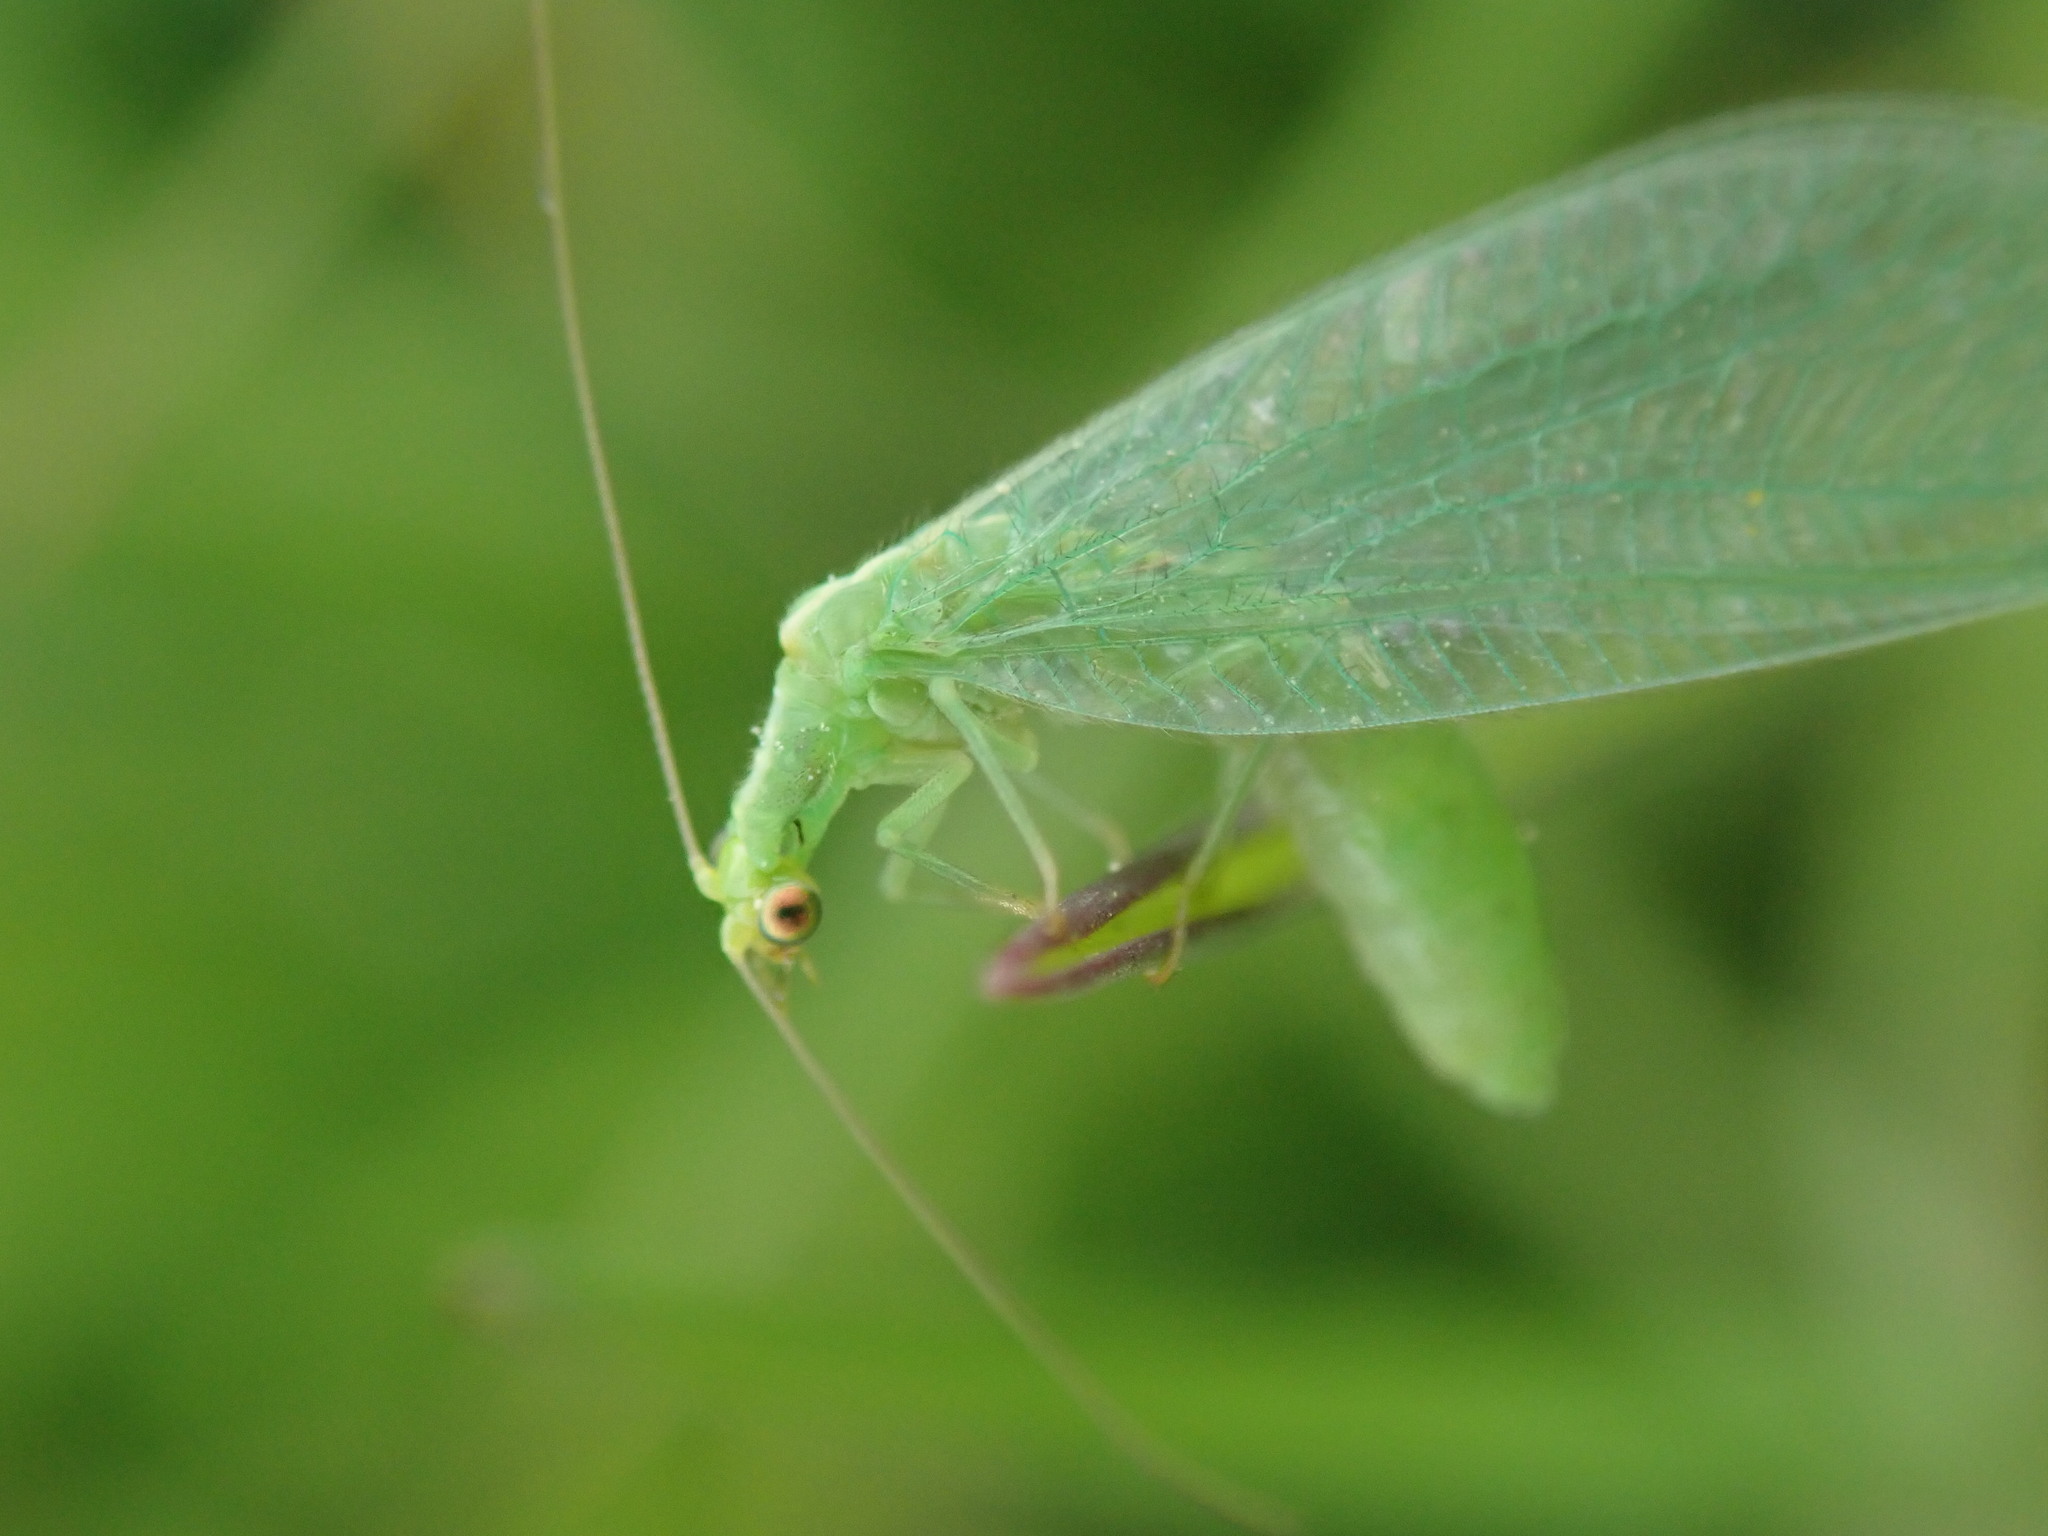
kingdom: Animalia
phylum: Arthropoda
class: Insecta
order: Neuroptera
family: Chrysopidae
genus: Chrysoperla
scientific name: Chrysoperla
